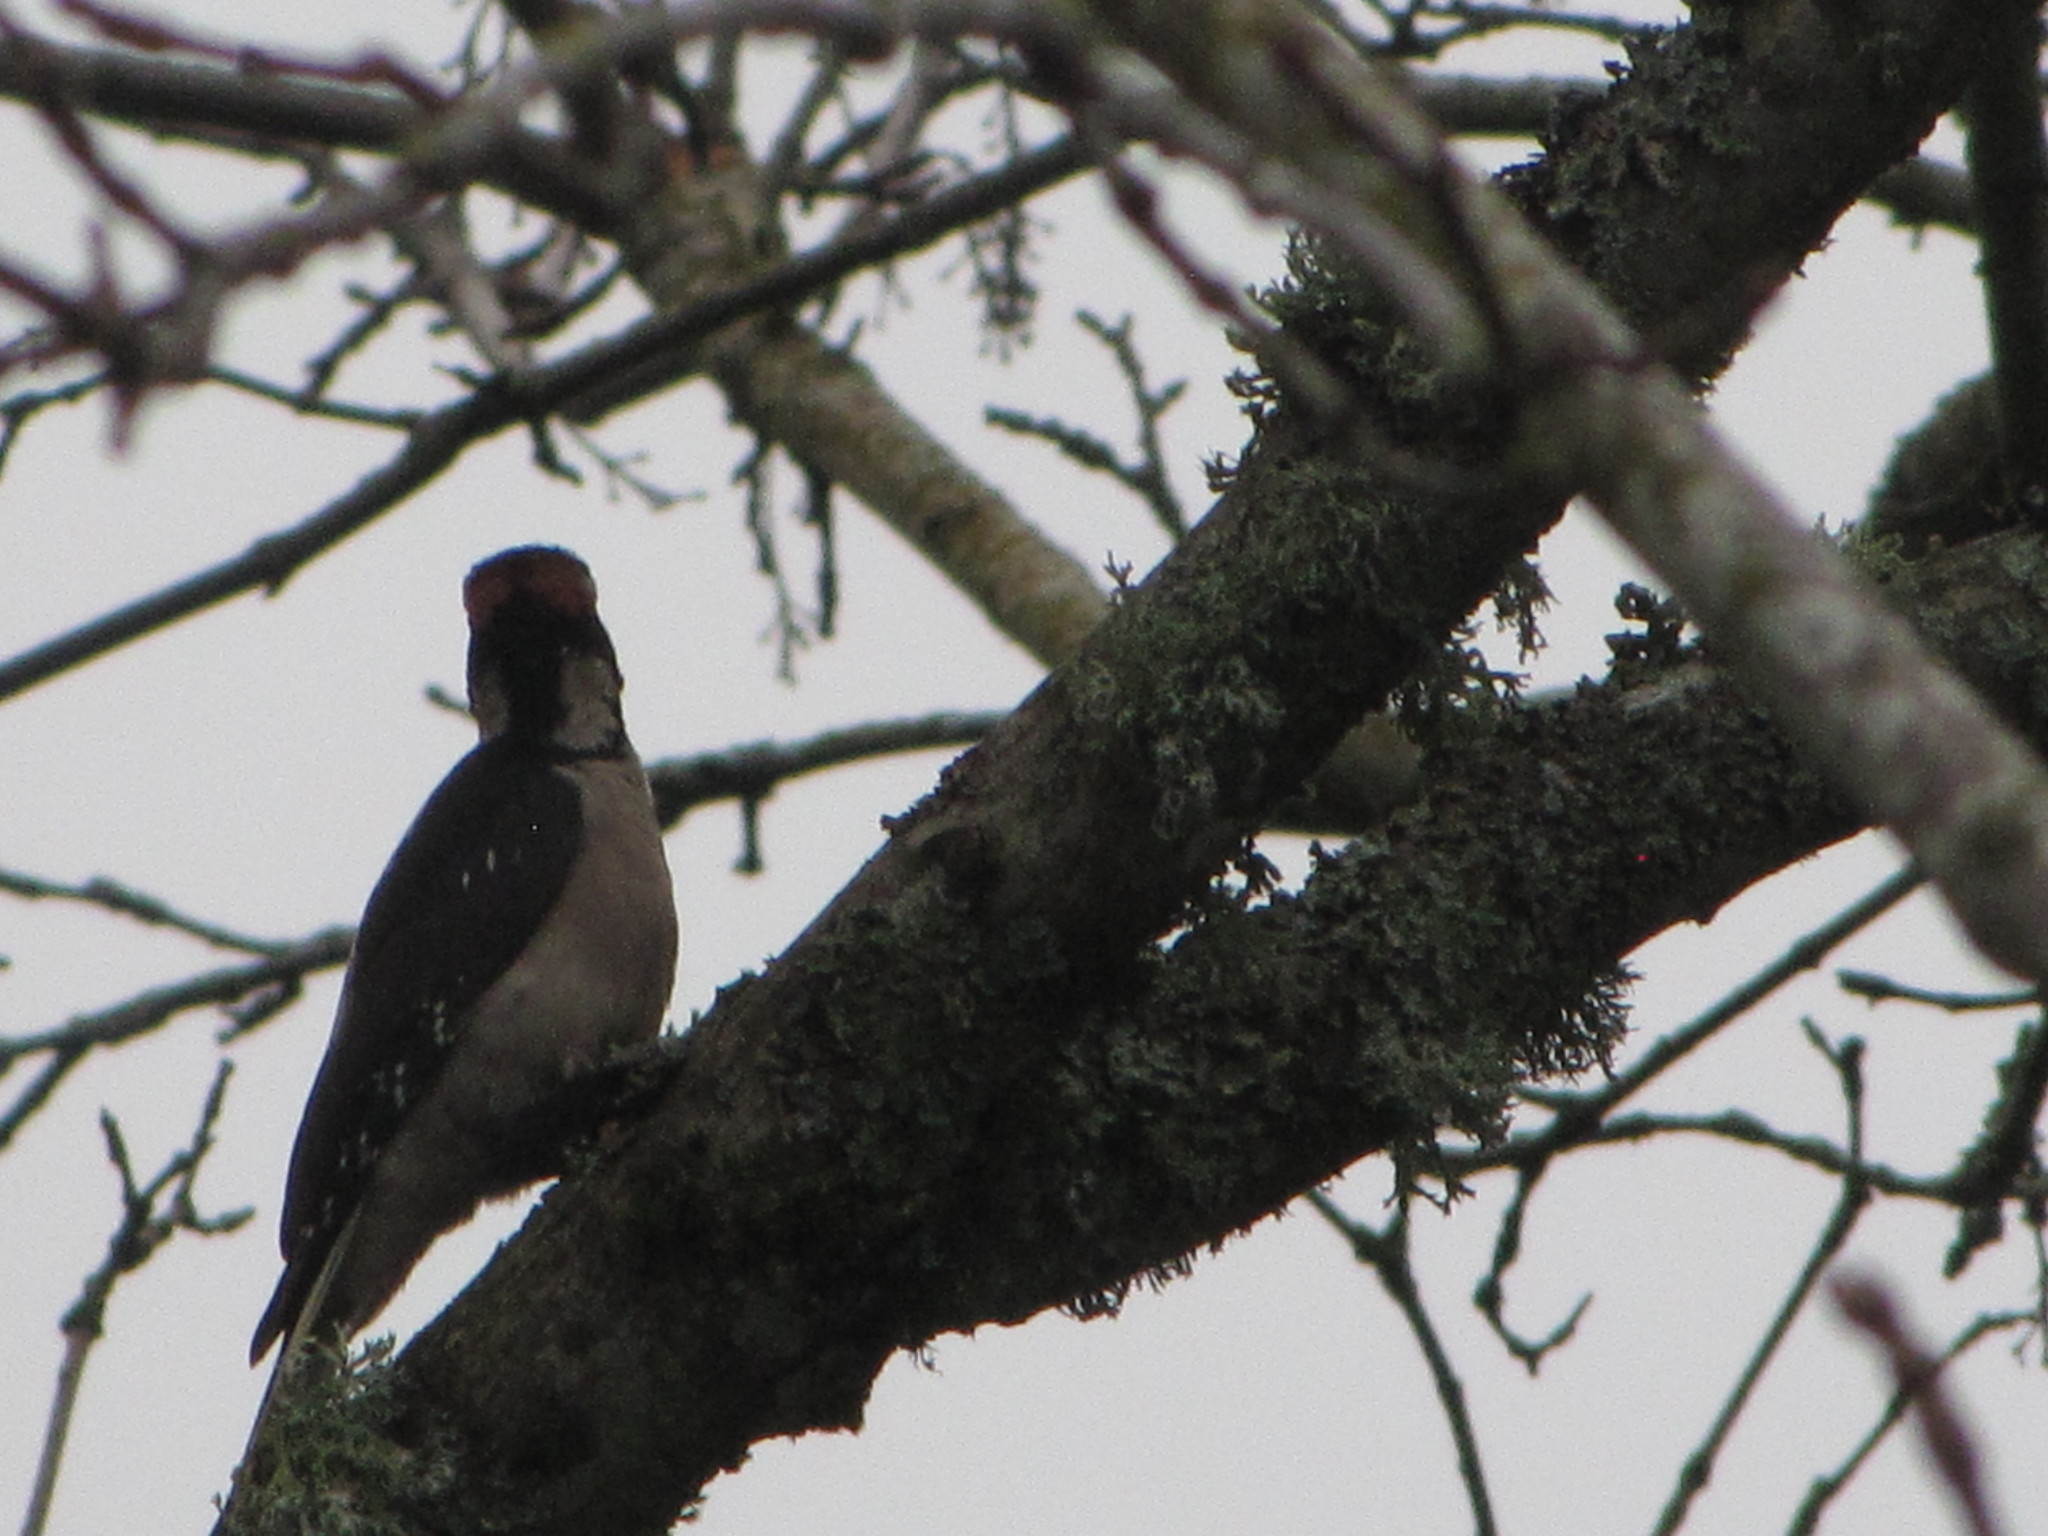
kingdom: Animalia
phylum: Chordata
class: Aves
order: Piciformes
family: Picidae
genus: Leuconotopicus
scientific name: Leuconotopicus villosus
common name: Hairy woodpecker
